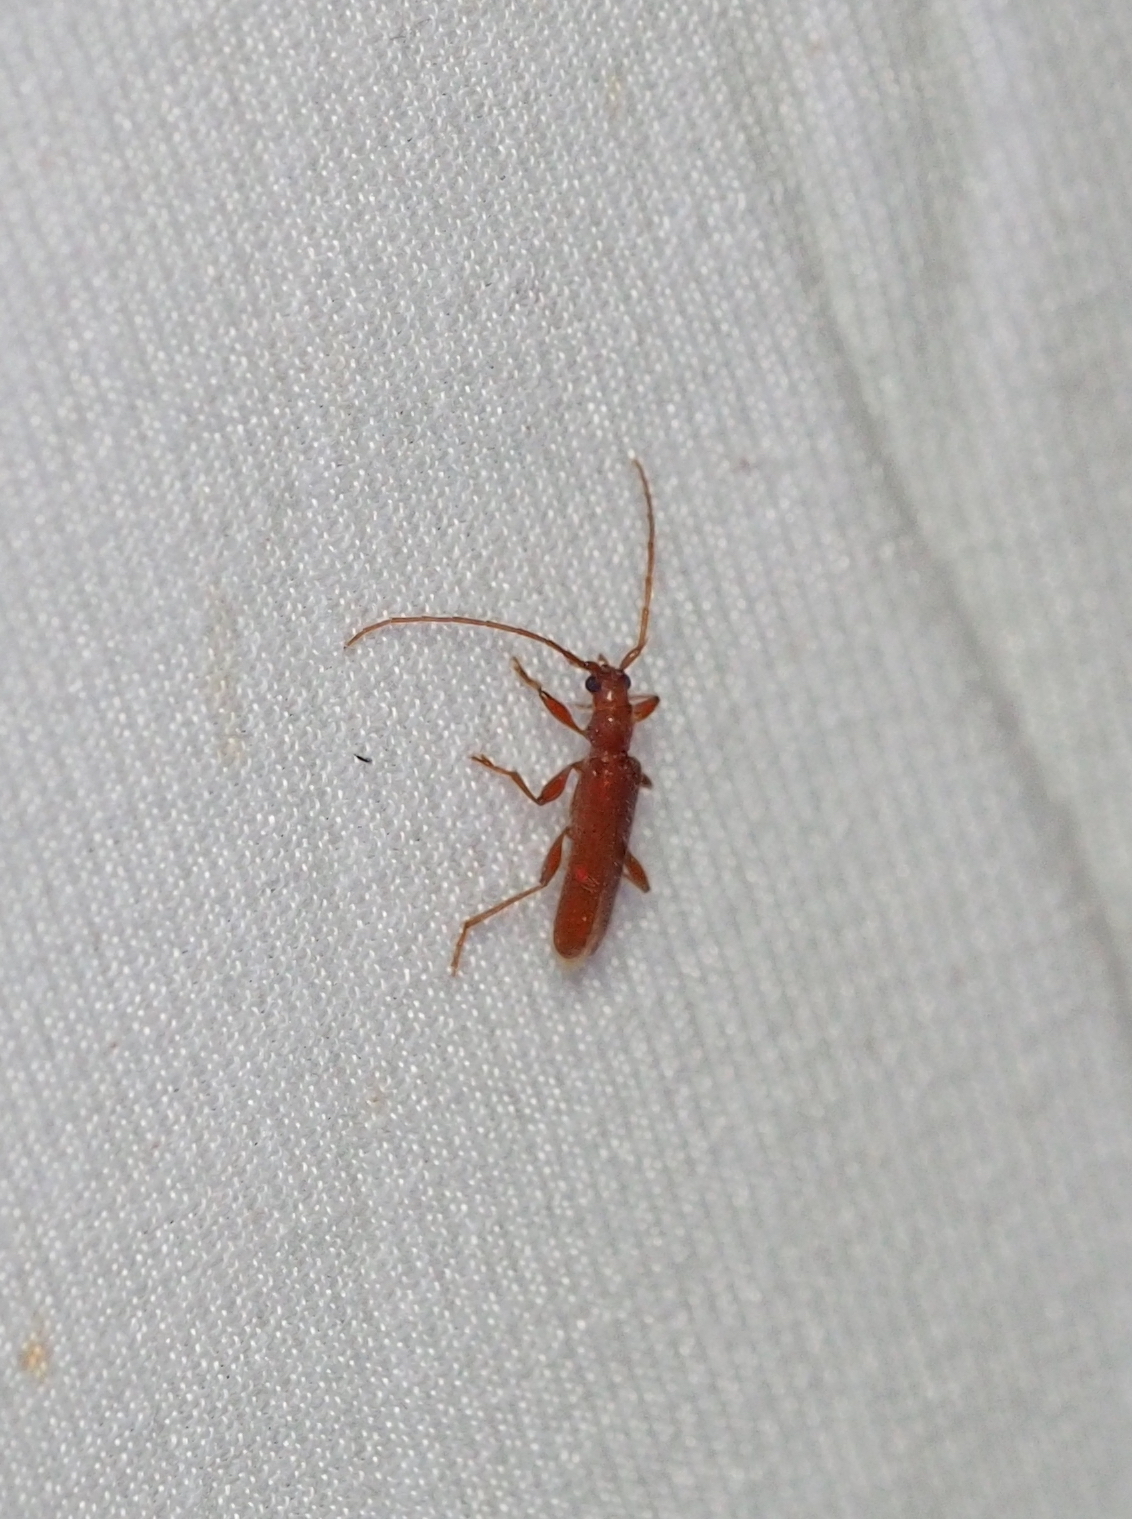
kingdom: Animalia
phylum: Arthropoda
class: Insecta
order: Coleoptera
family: Cerambycidae
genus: Axinopalpis
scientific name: Axinopalpis gracilis
